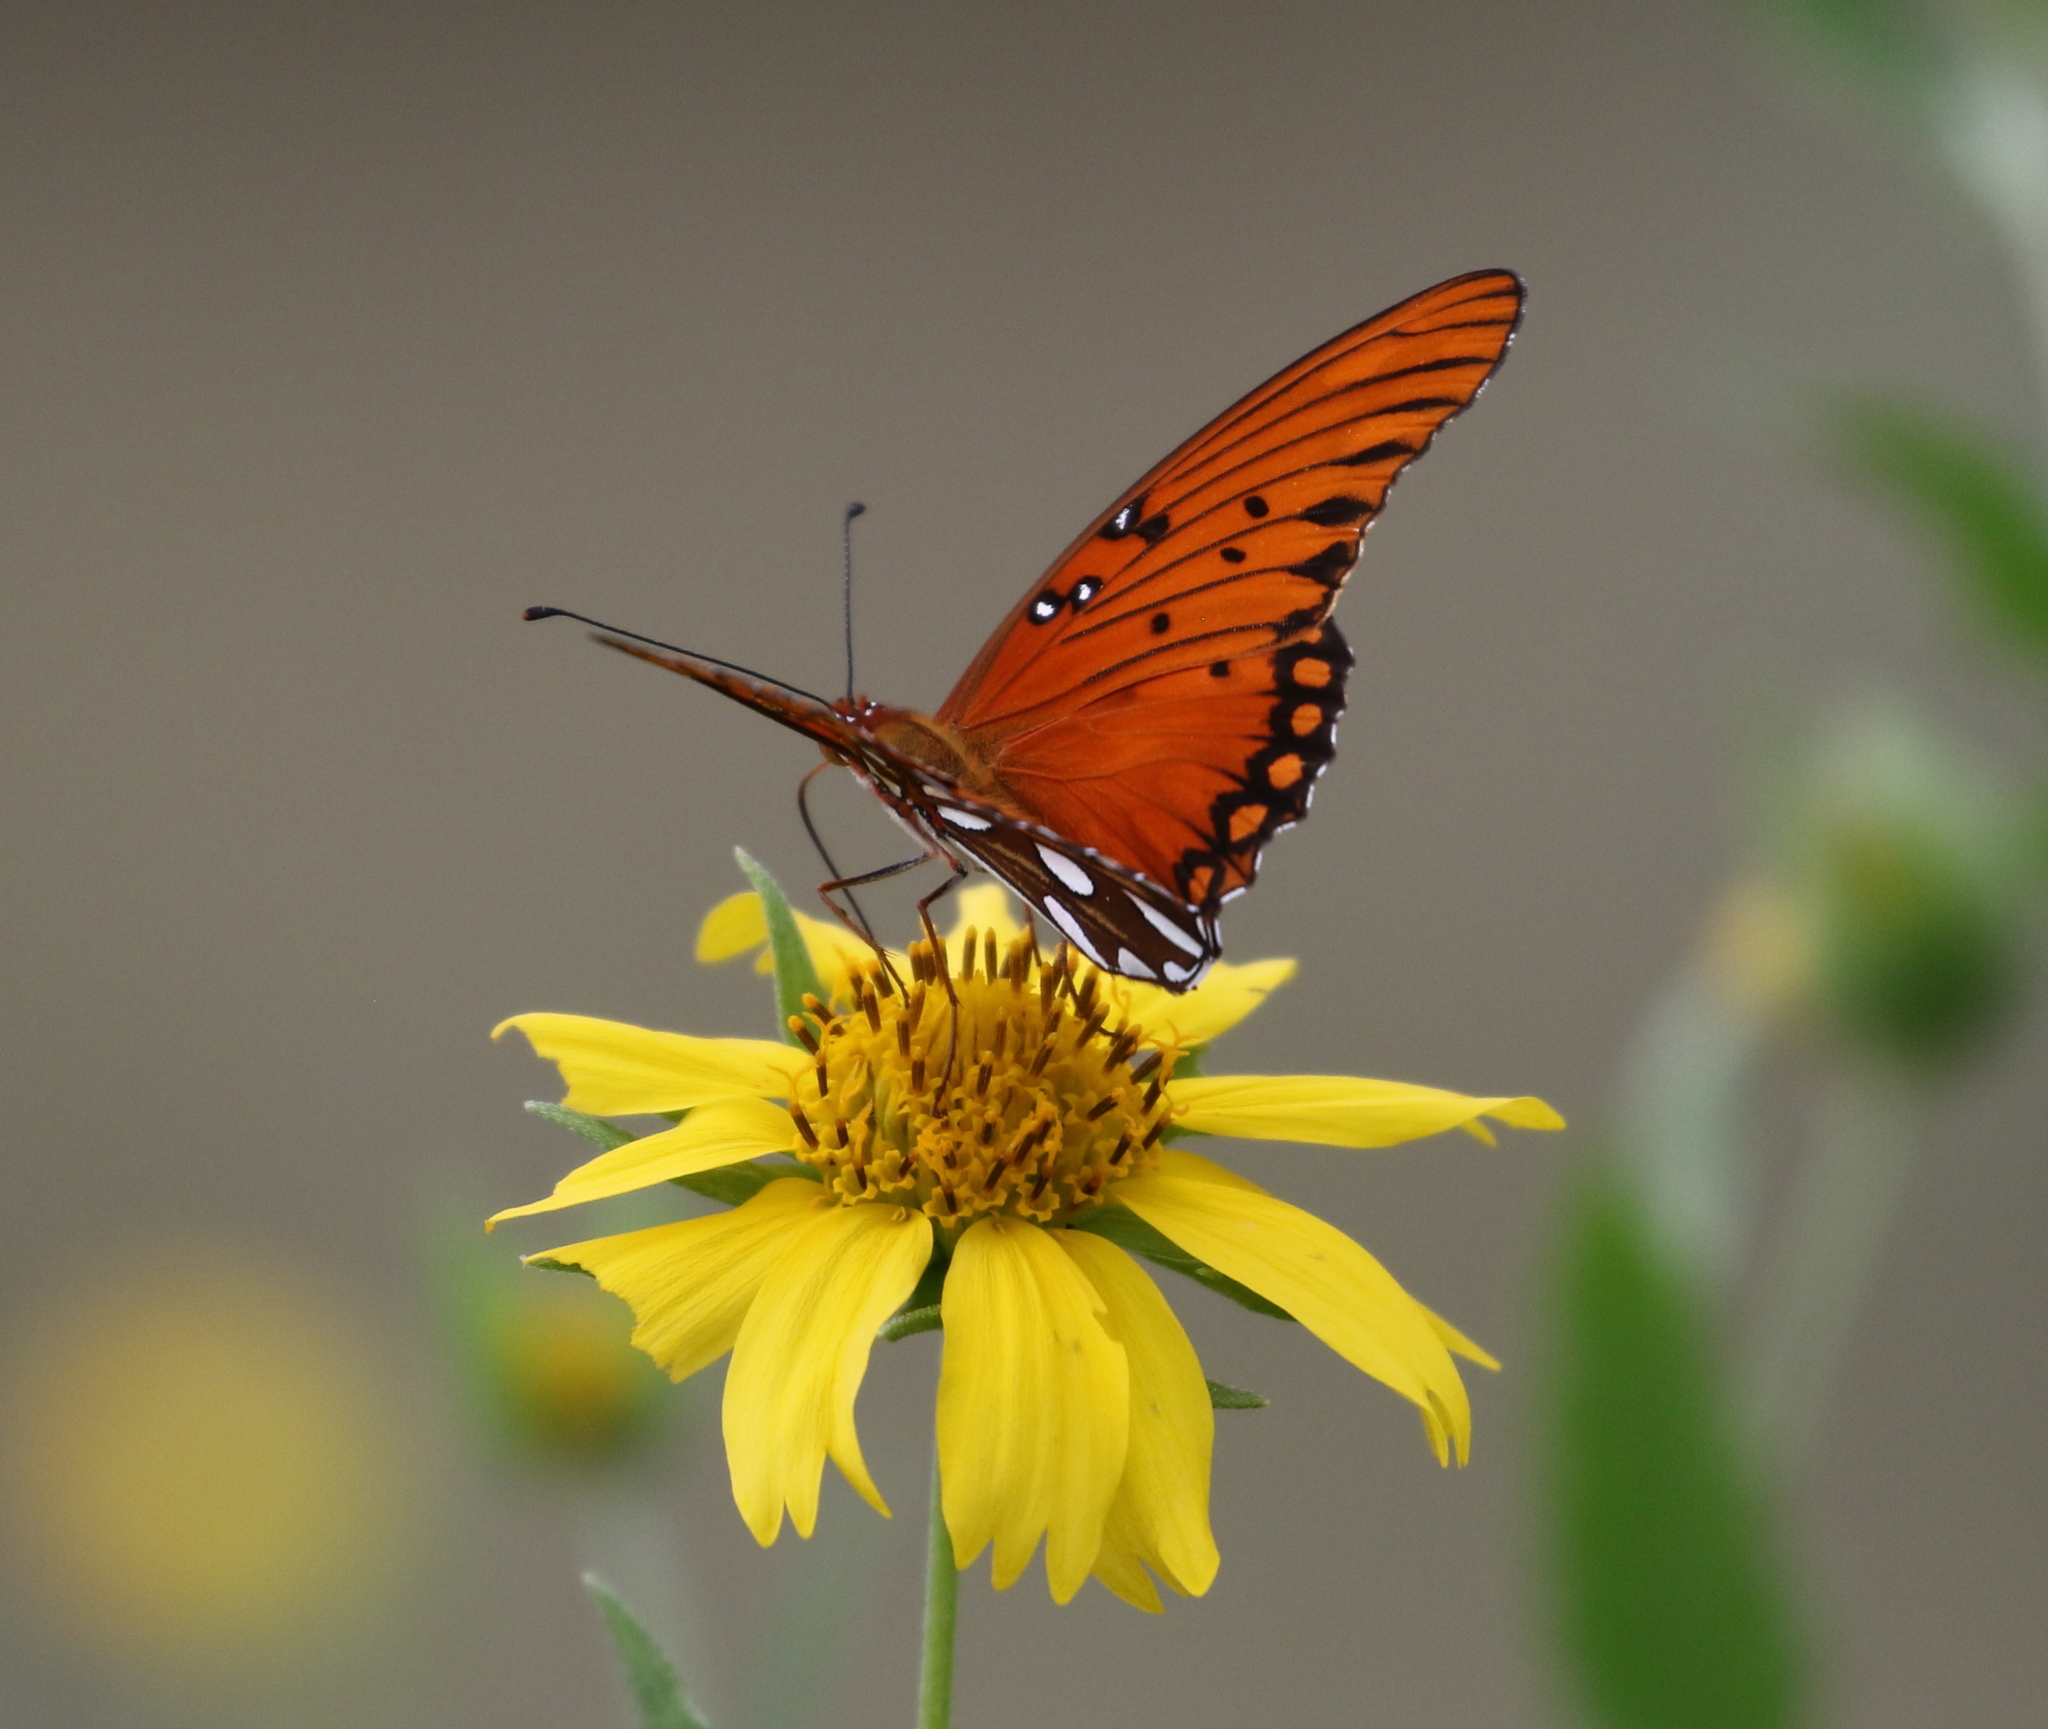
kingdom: Animalia
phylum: Arthropoda
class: Insecta
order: Lepidoptera
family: Nymphalidae
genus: Dione
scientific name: Dione vanillae
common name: Gulf fritillary
